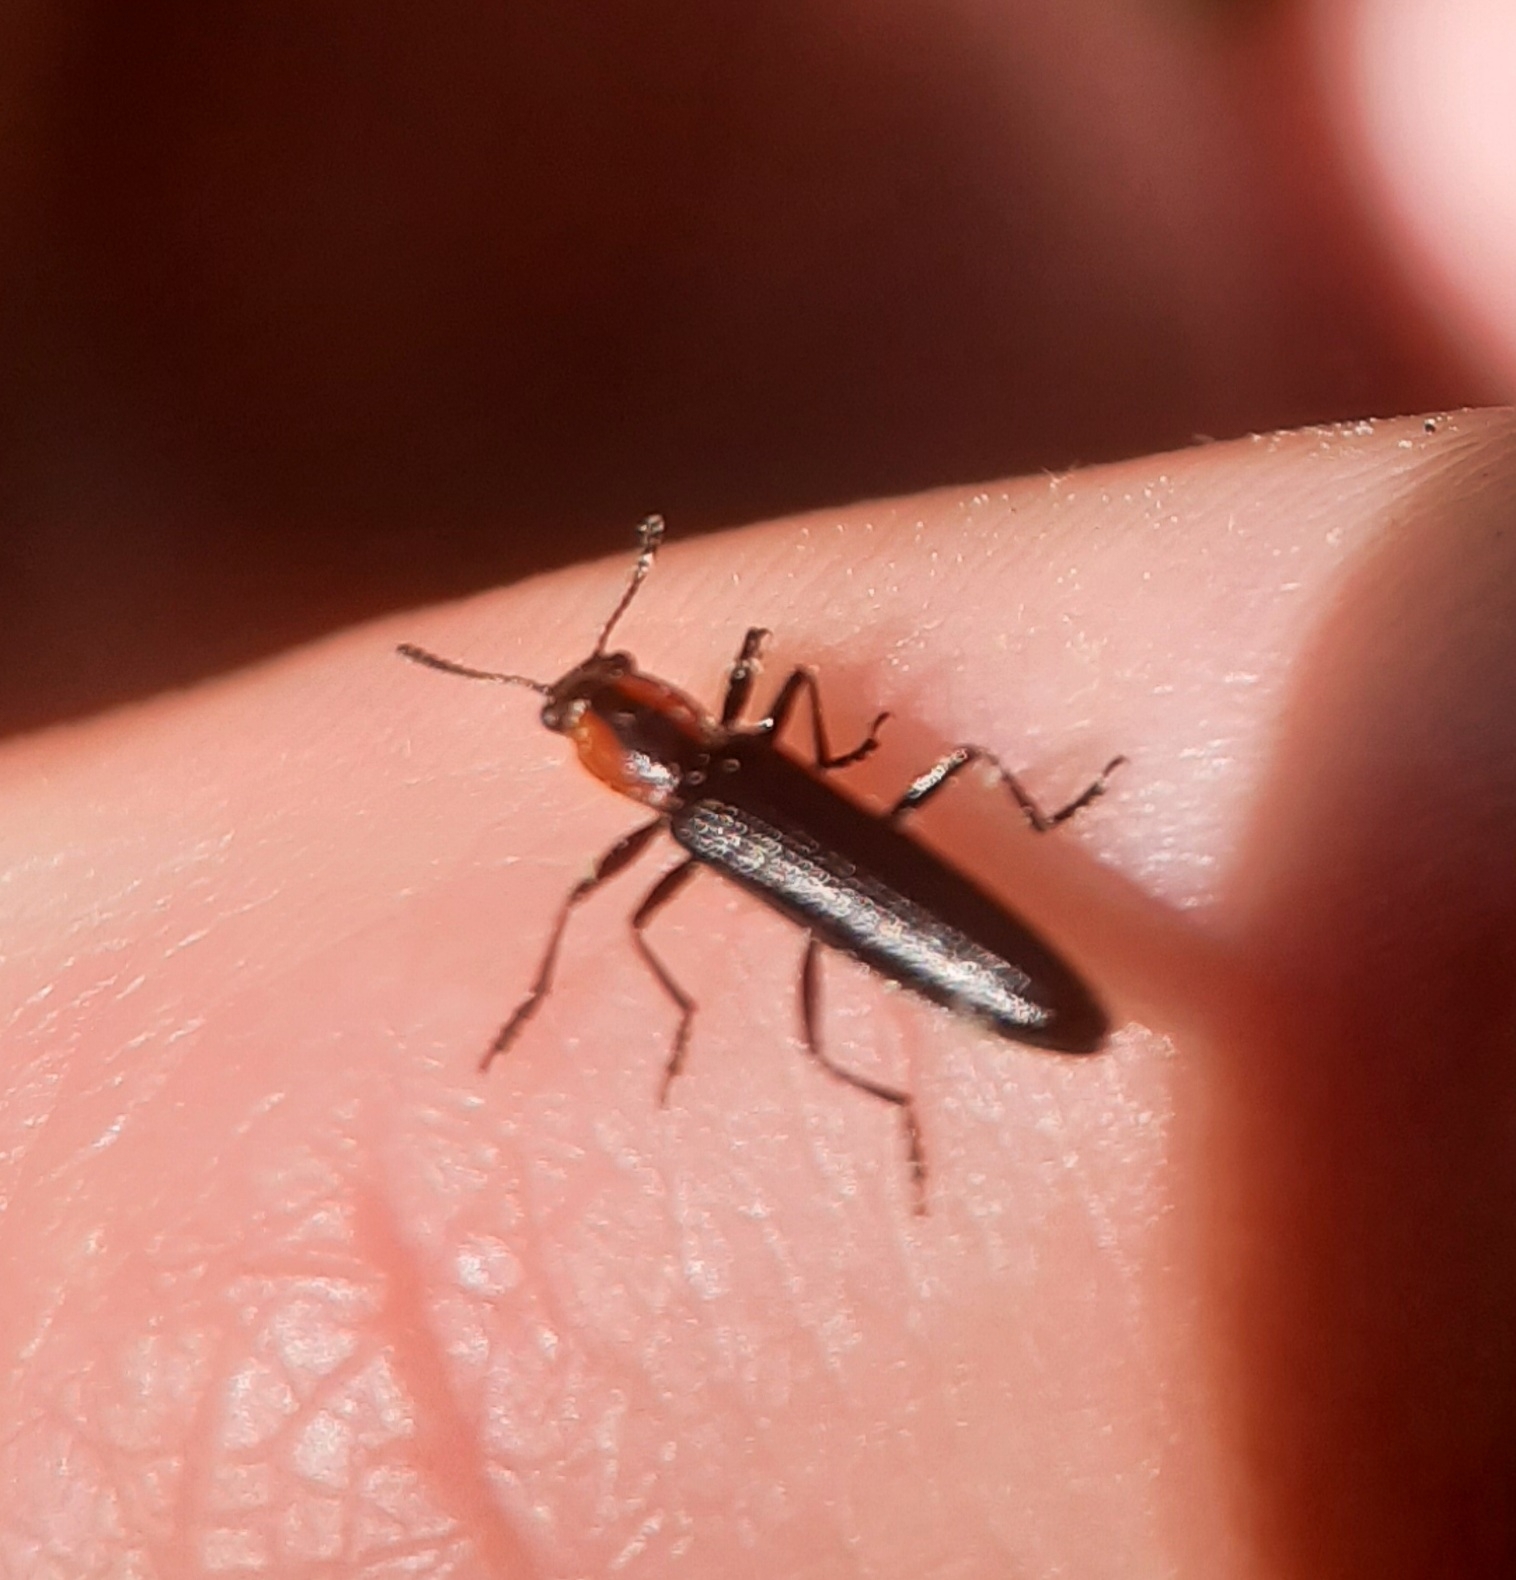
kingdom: Animalia
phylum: Arthropoda
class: Insecta
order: Coleoptera
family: Erotylidae
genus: Acropteroxys
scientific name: Acropteroxys gracilis
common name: Slender lizard beetle
